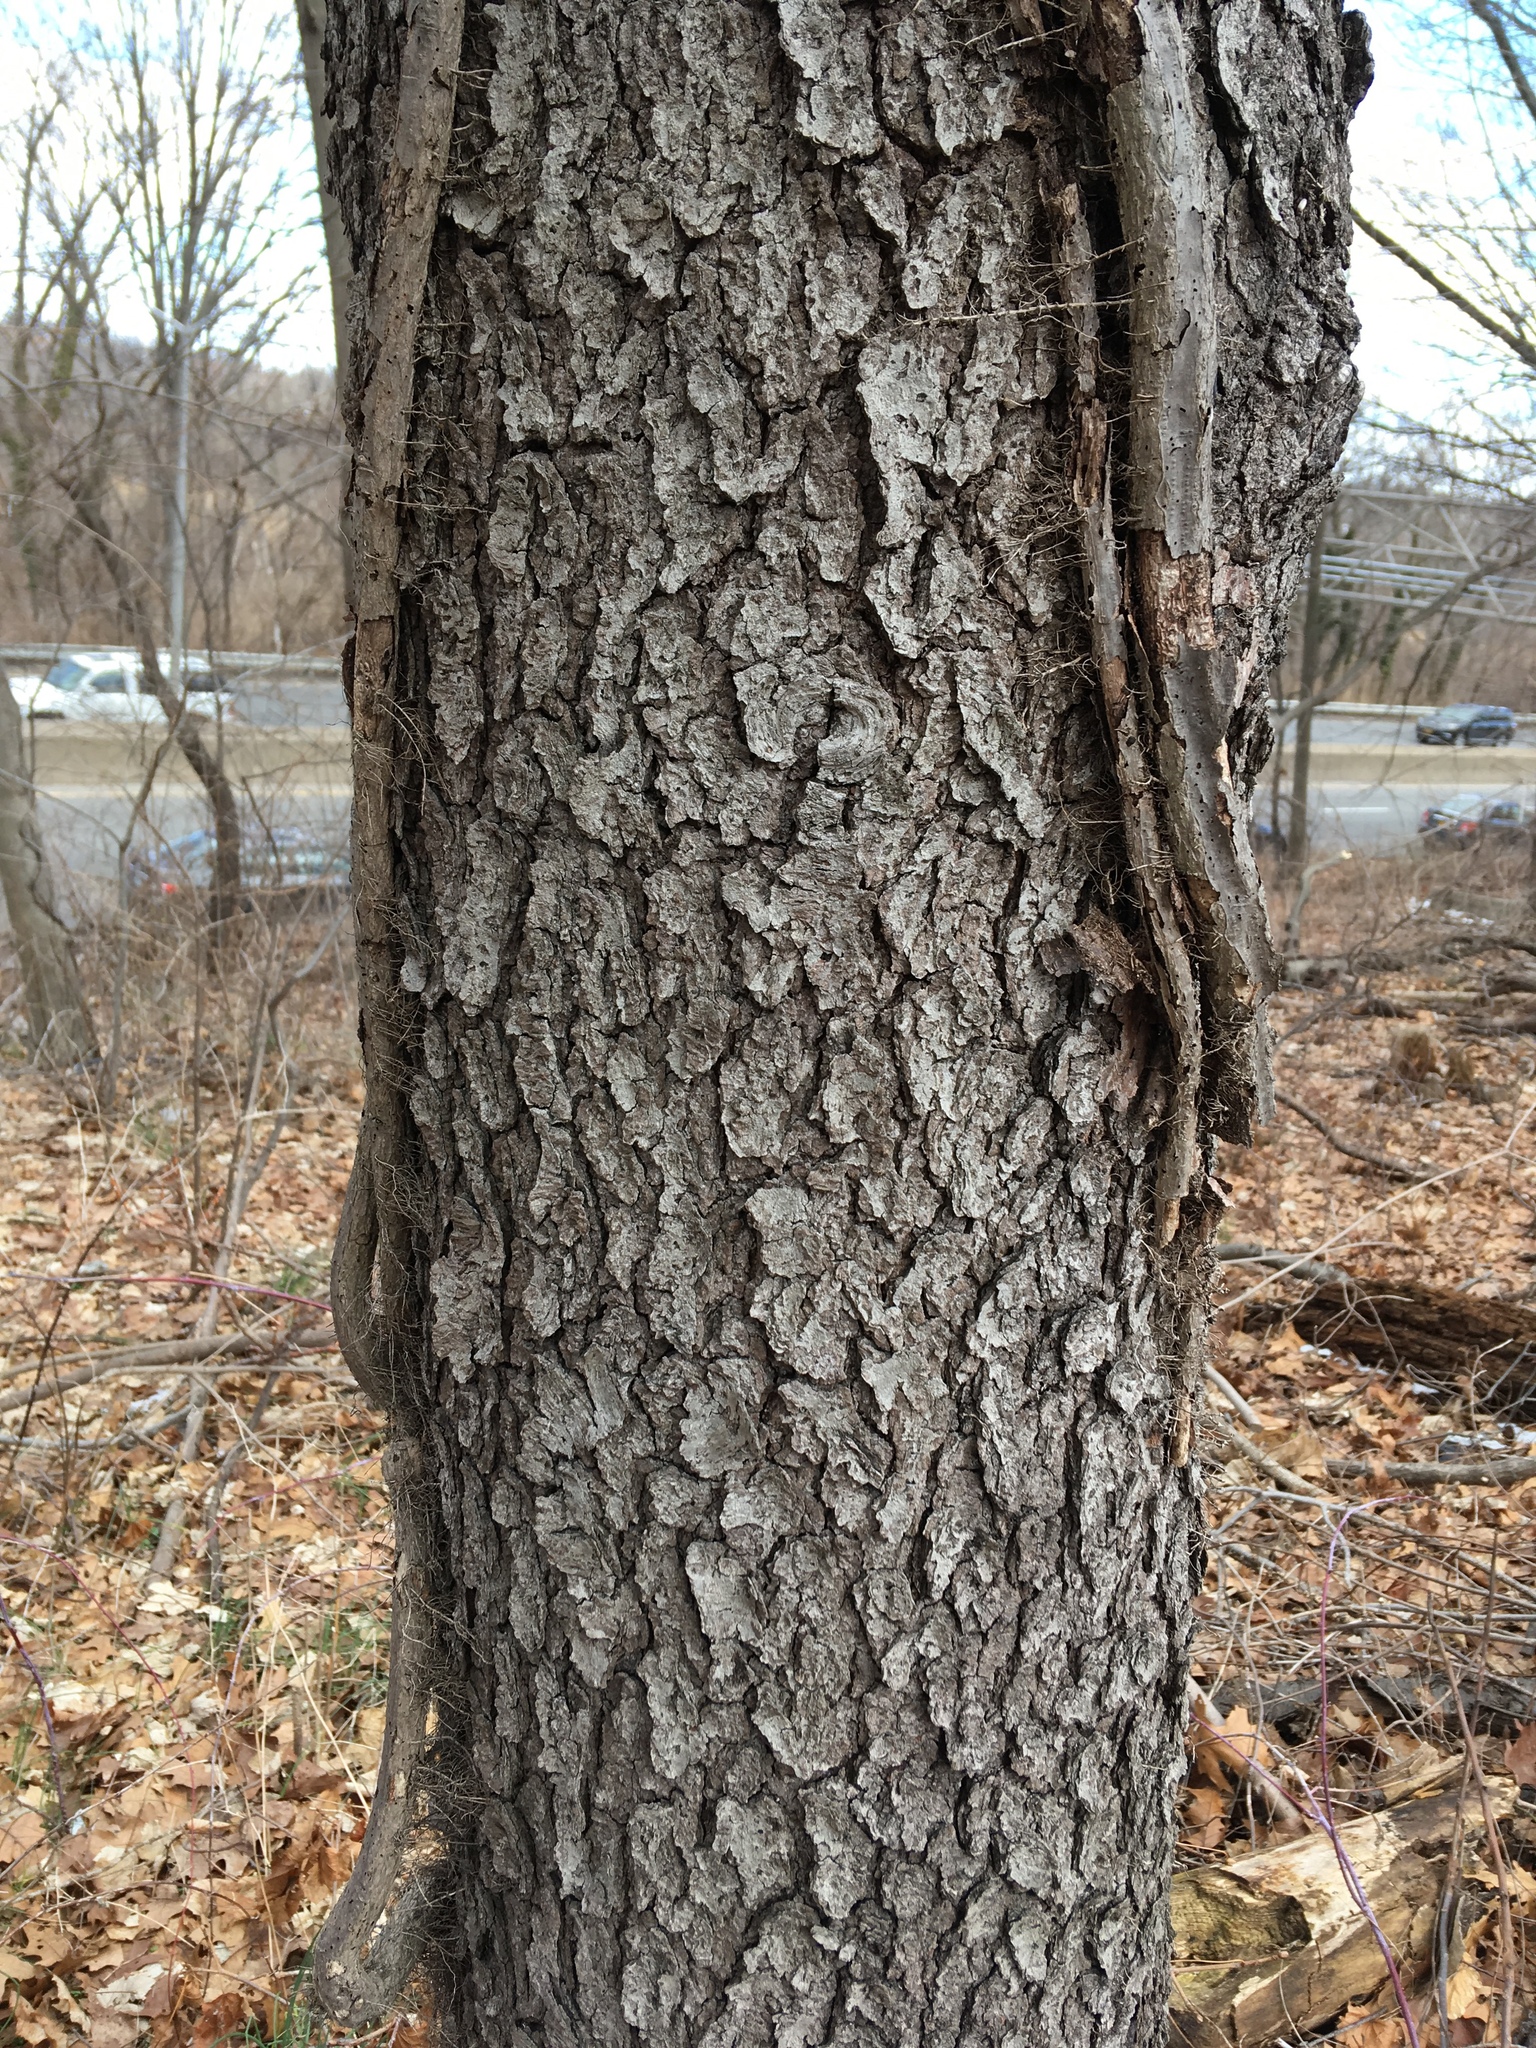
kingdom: Plantae
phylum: Tracheophyta
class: Magnoliopsida
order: Rosales
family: Rosaceae
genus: Prunus
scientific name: Prunus serotina
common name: Black cherry
